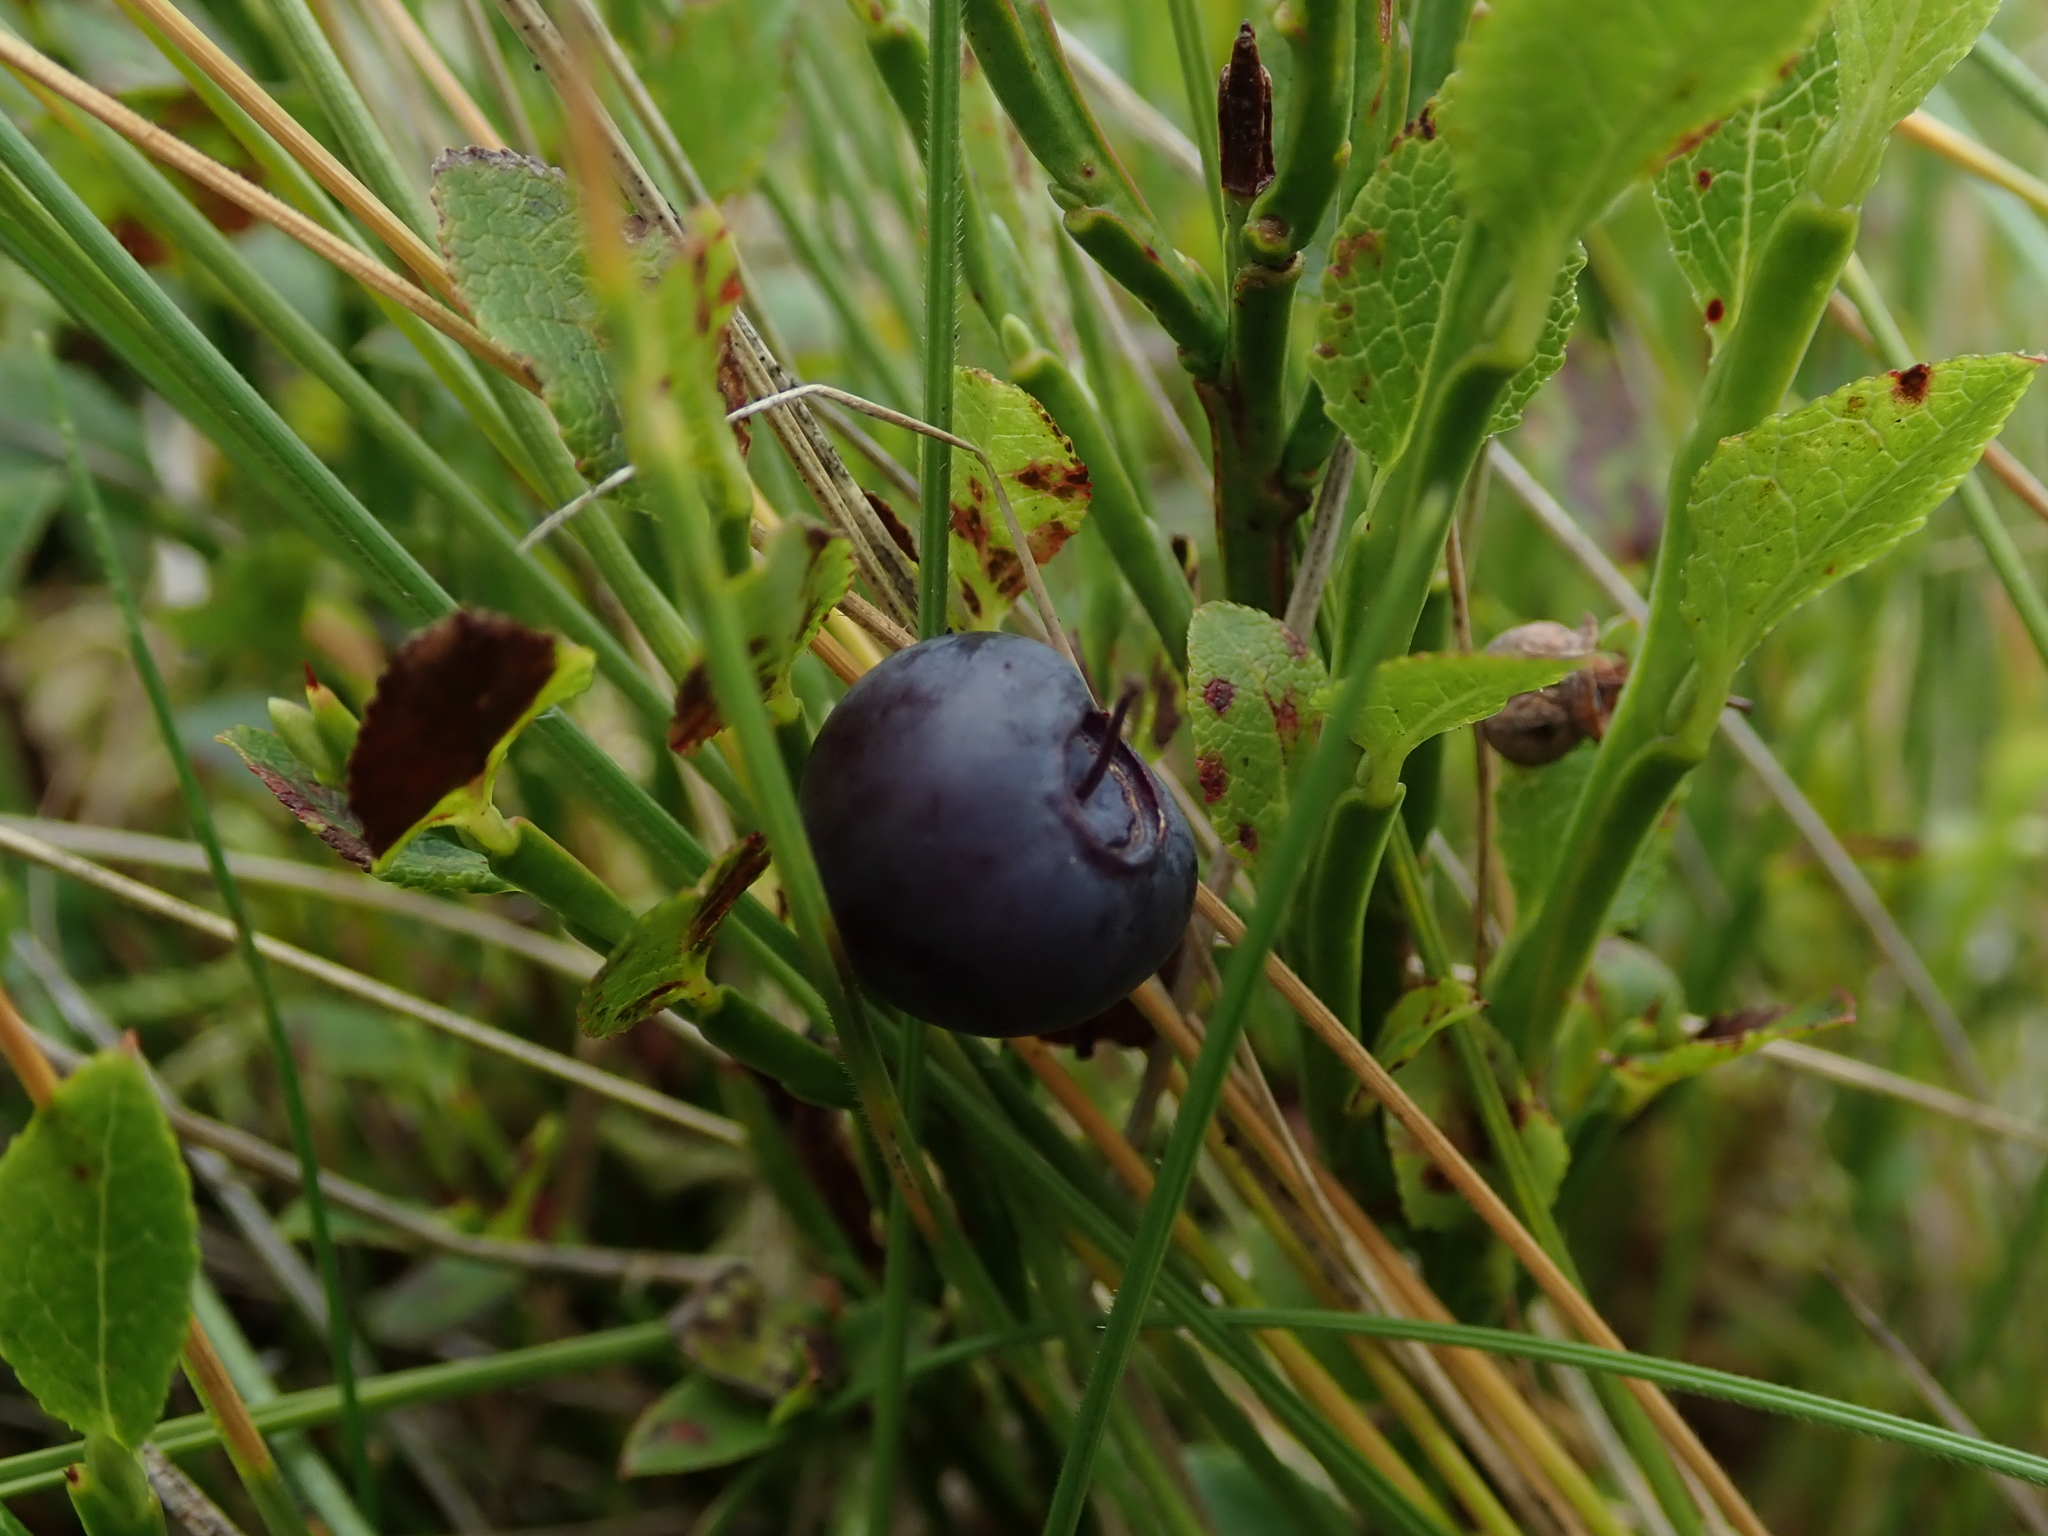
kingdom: Plantae
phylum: Tracheophyta
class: Magnoliopsida
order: Ericales
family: Ericaceae
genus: Vaccinium
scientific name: Vaccinium myrtillus
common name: Bilberry
